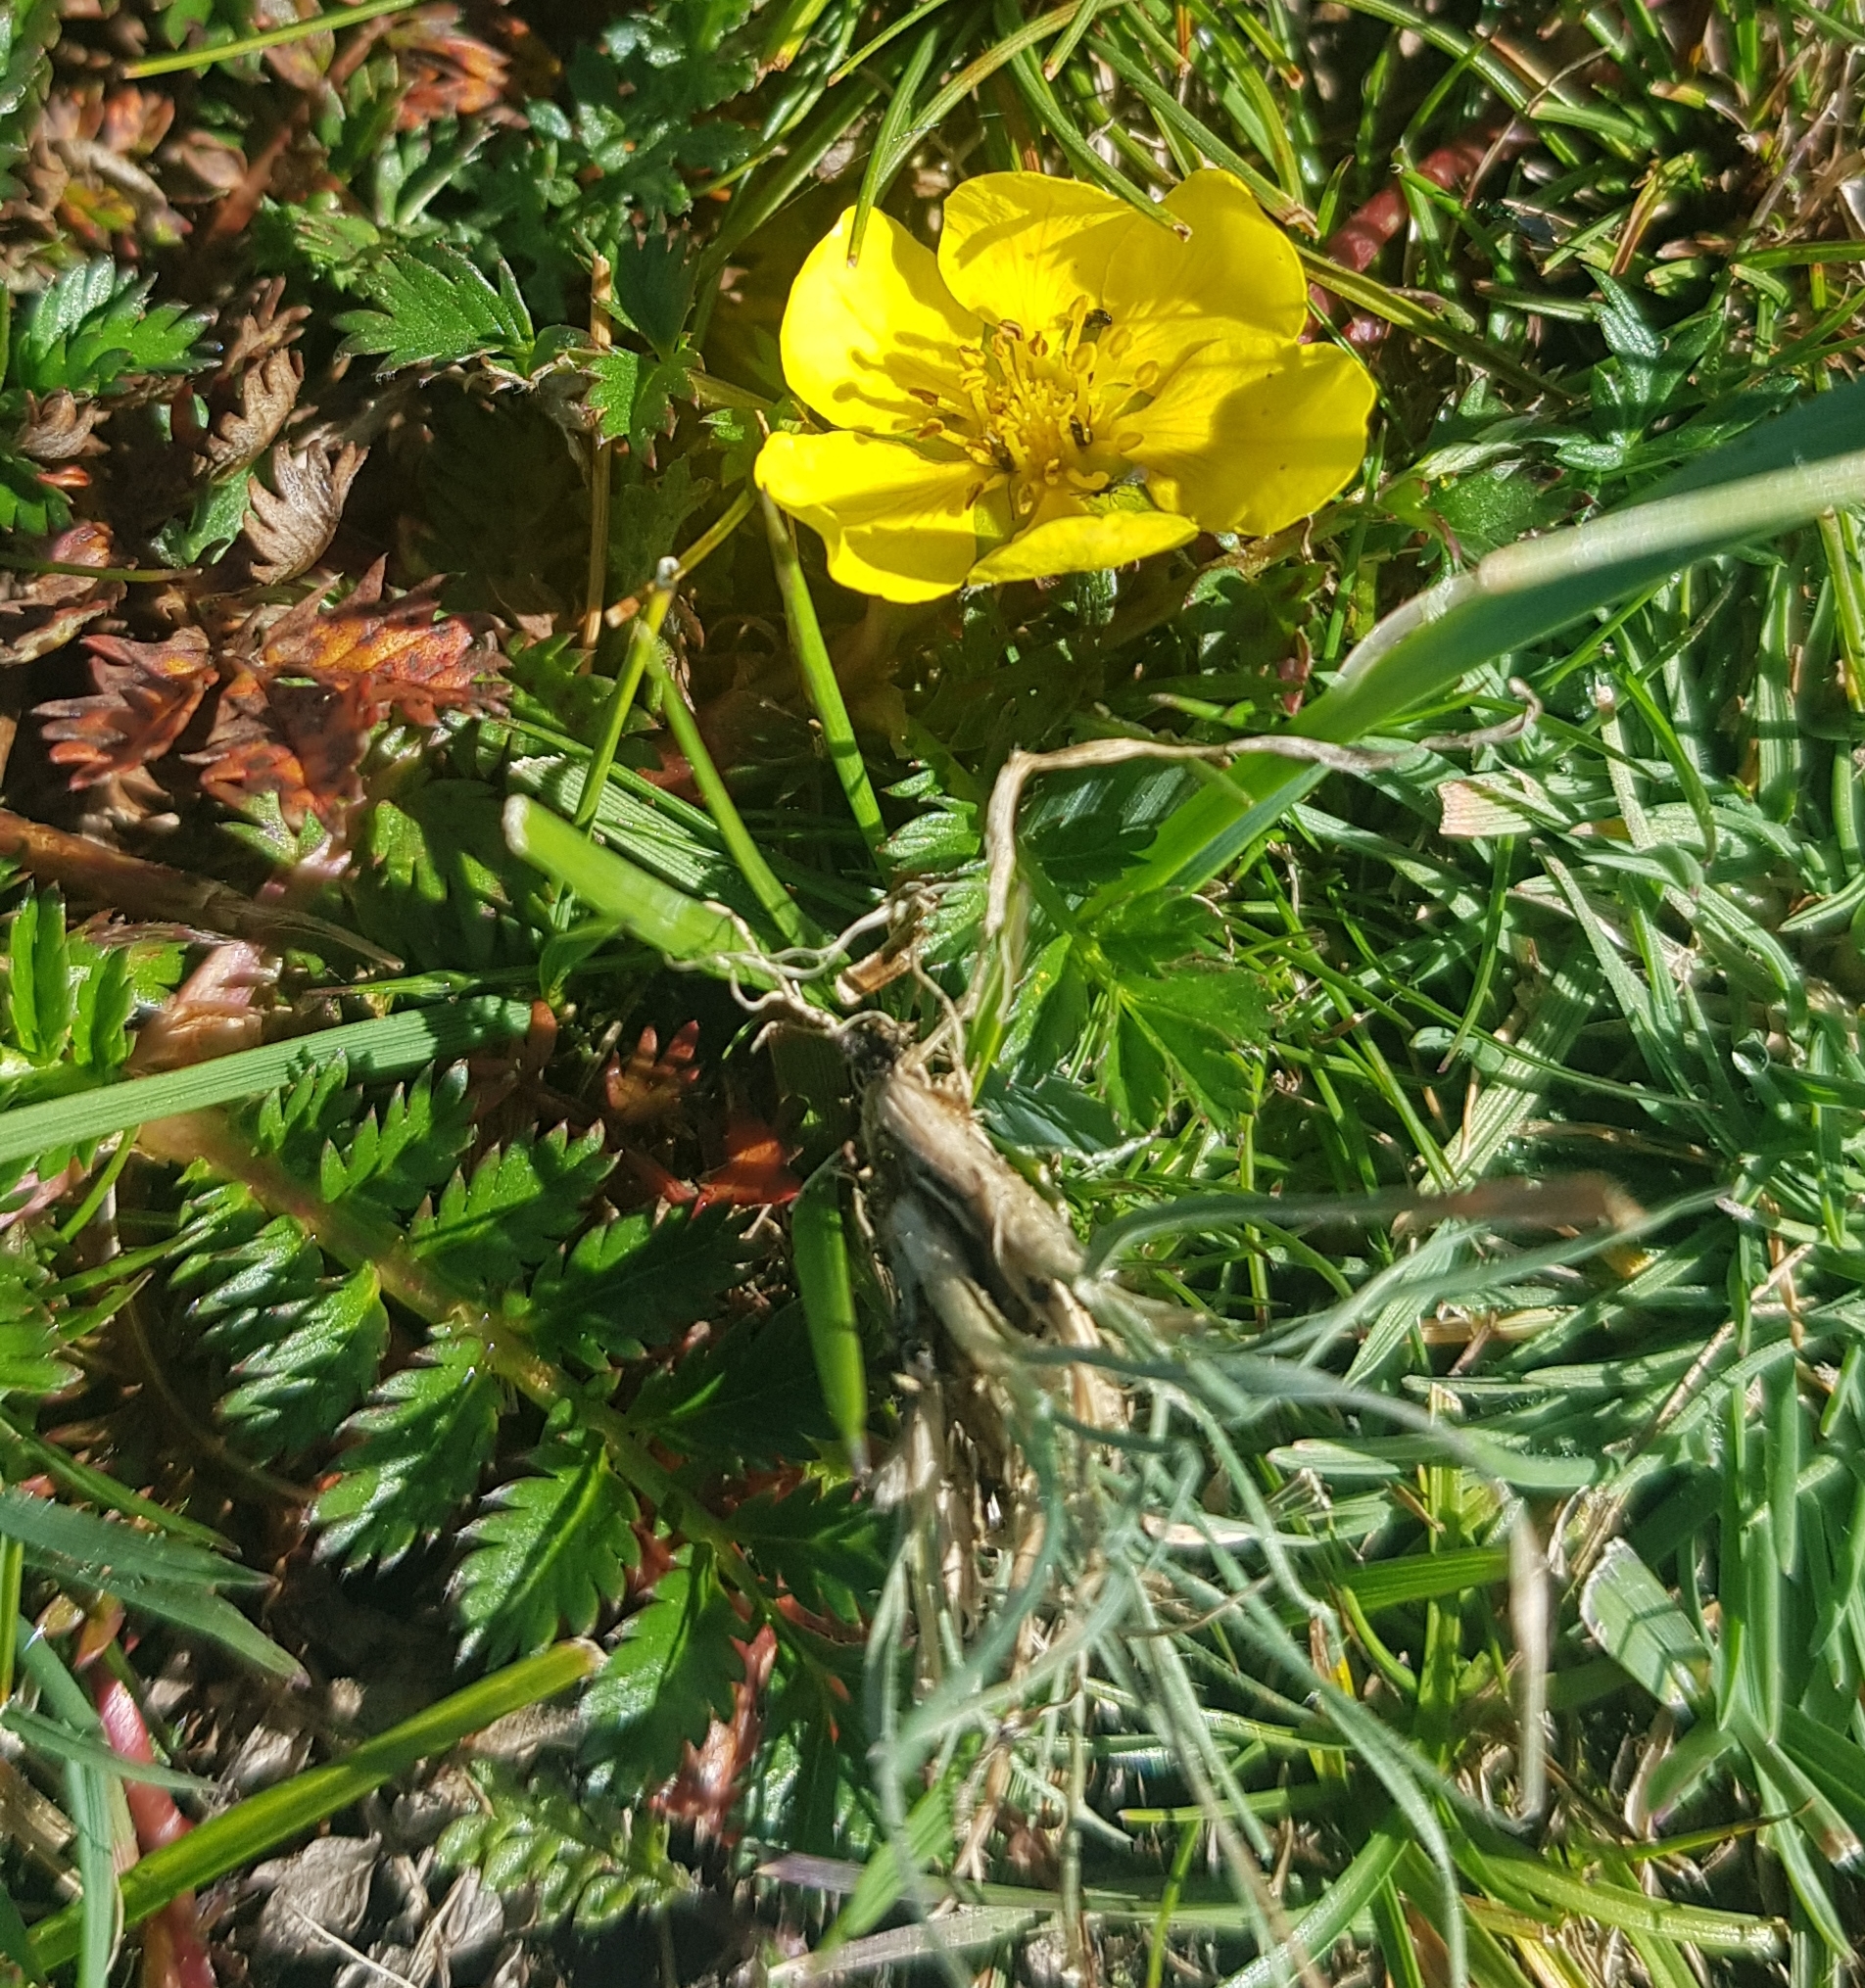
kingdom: Plantae
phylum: Tracheophyta
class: Magnoliopsida
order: Rosales
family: Rosaceae
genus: Argentina
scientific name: Argentina anserina
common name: Common silverweed
